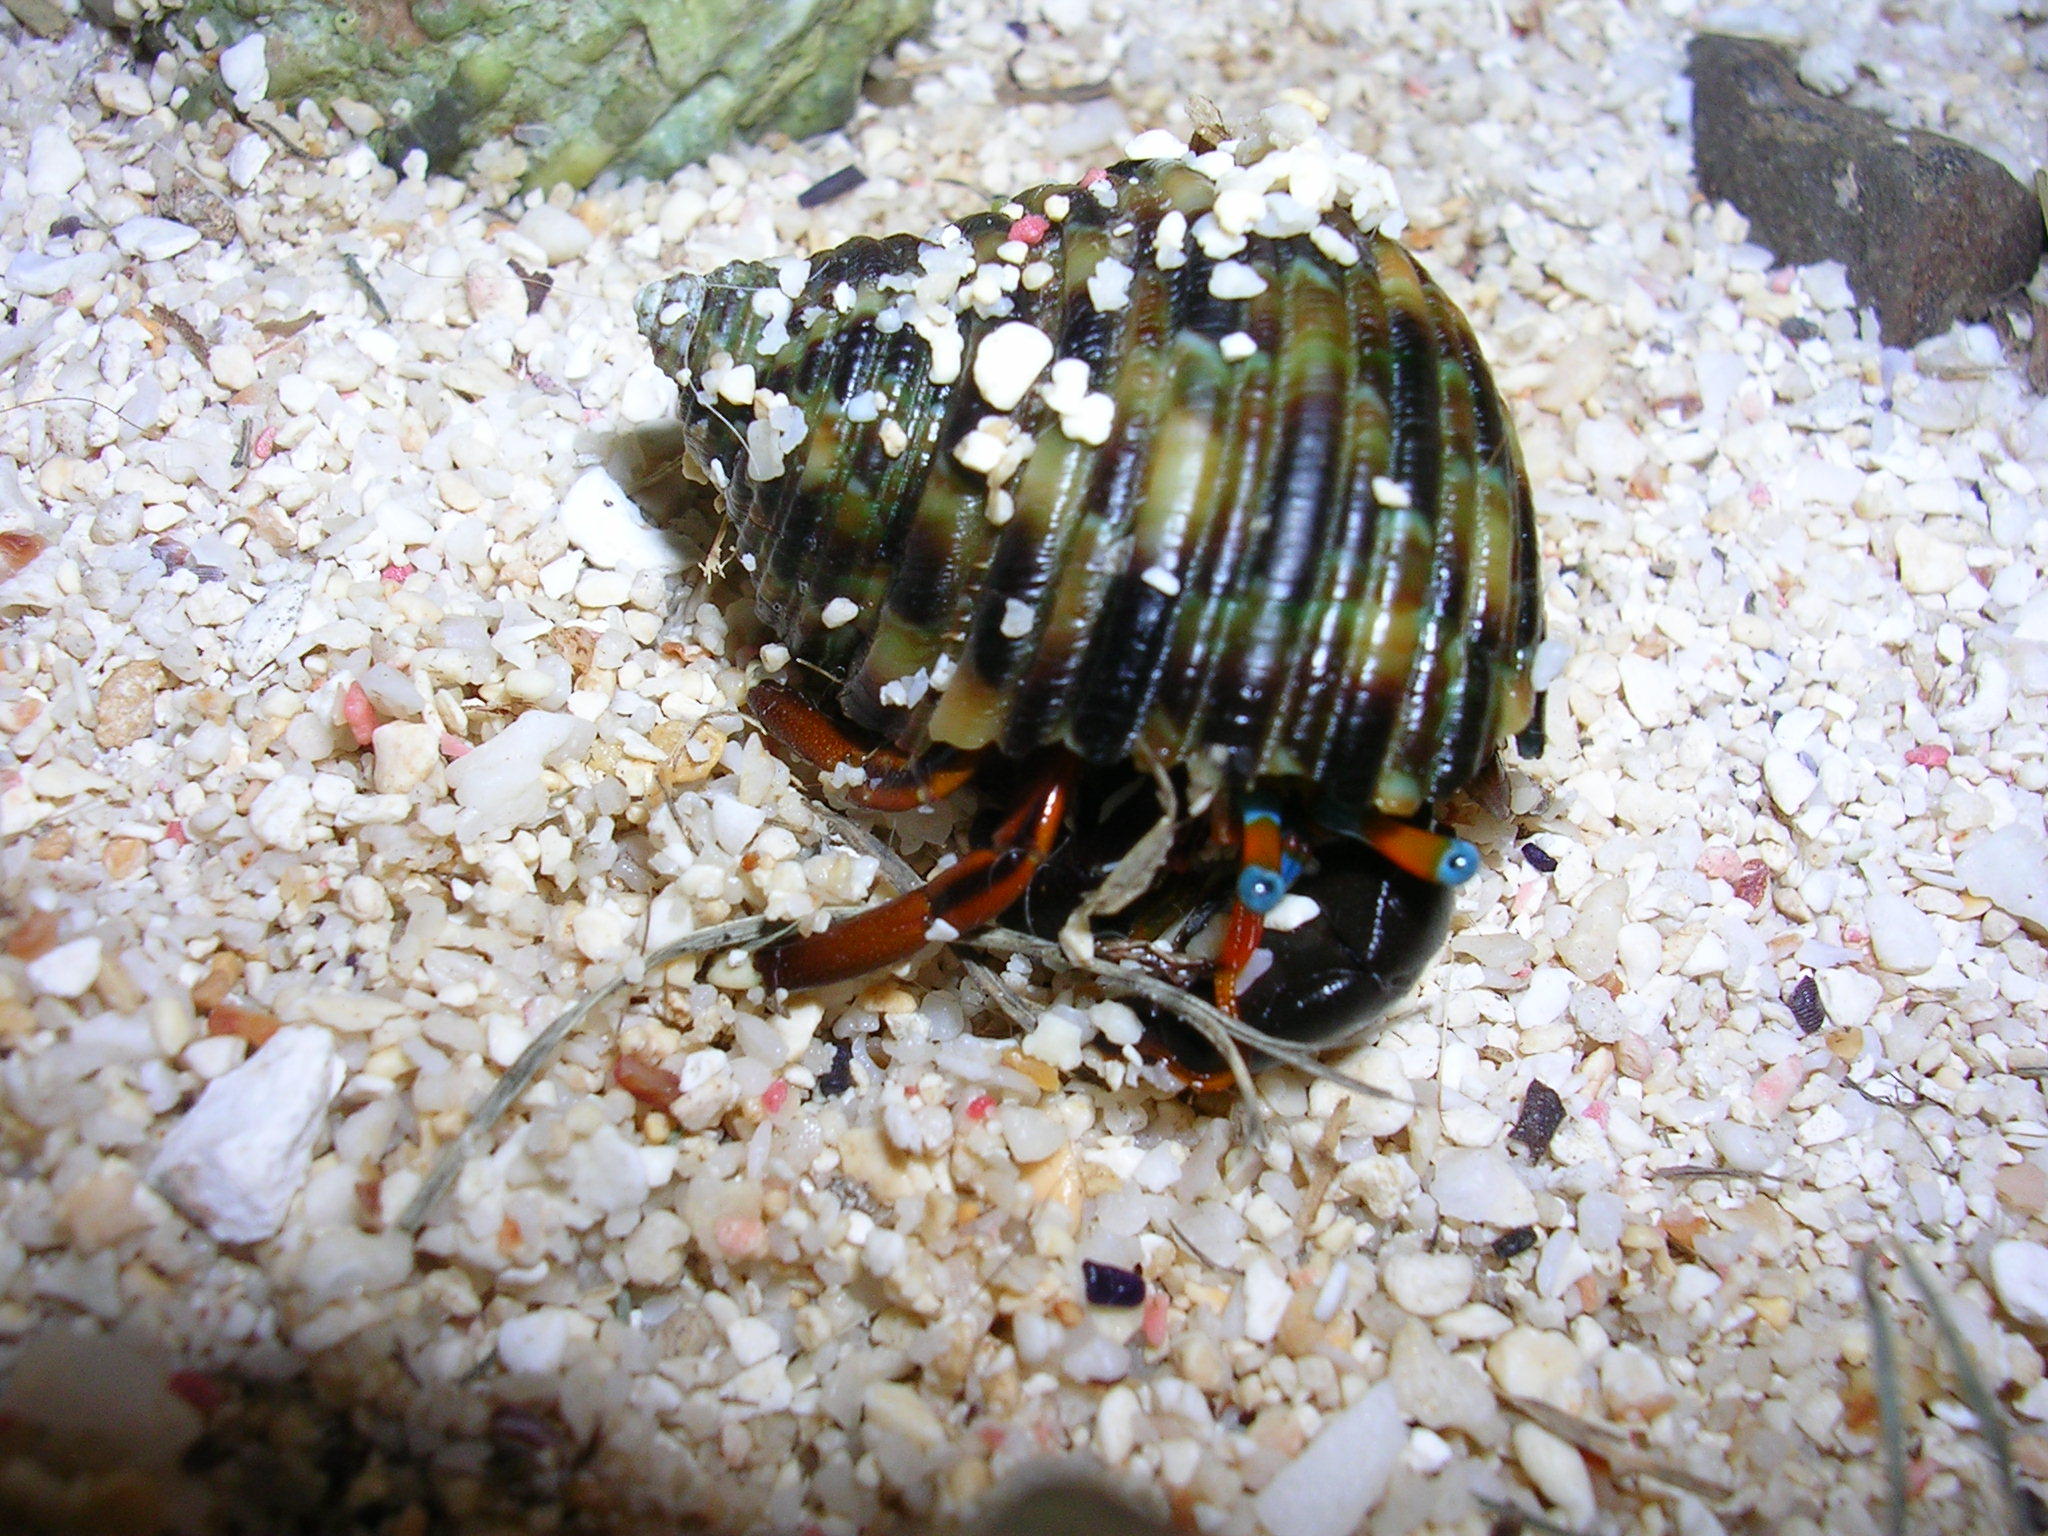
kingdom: Animalia
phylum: Arthropoda
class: Malacostraca
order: Decapoda
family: Diogenidae
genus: Calcinus
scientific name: Calcinus laevimanus
